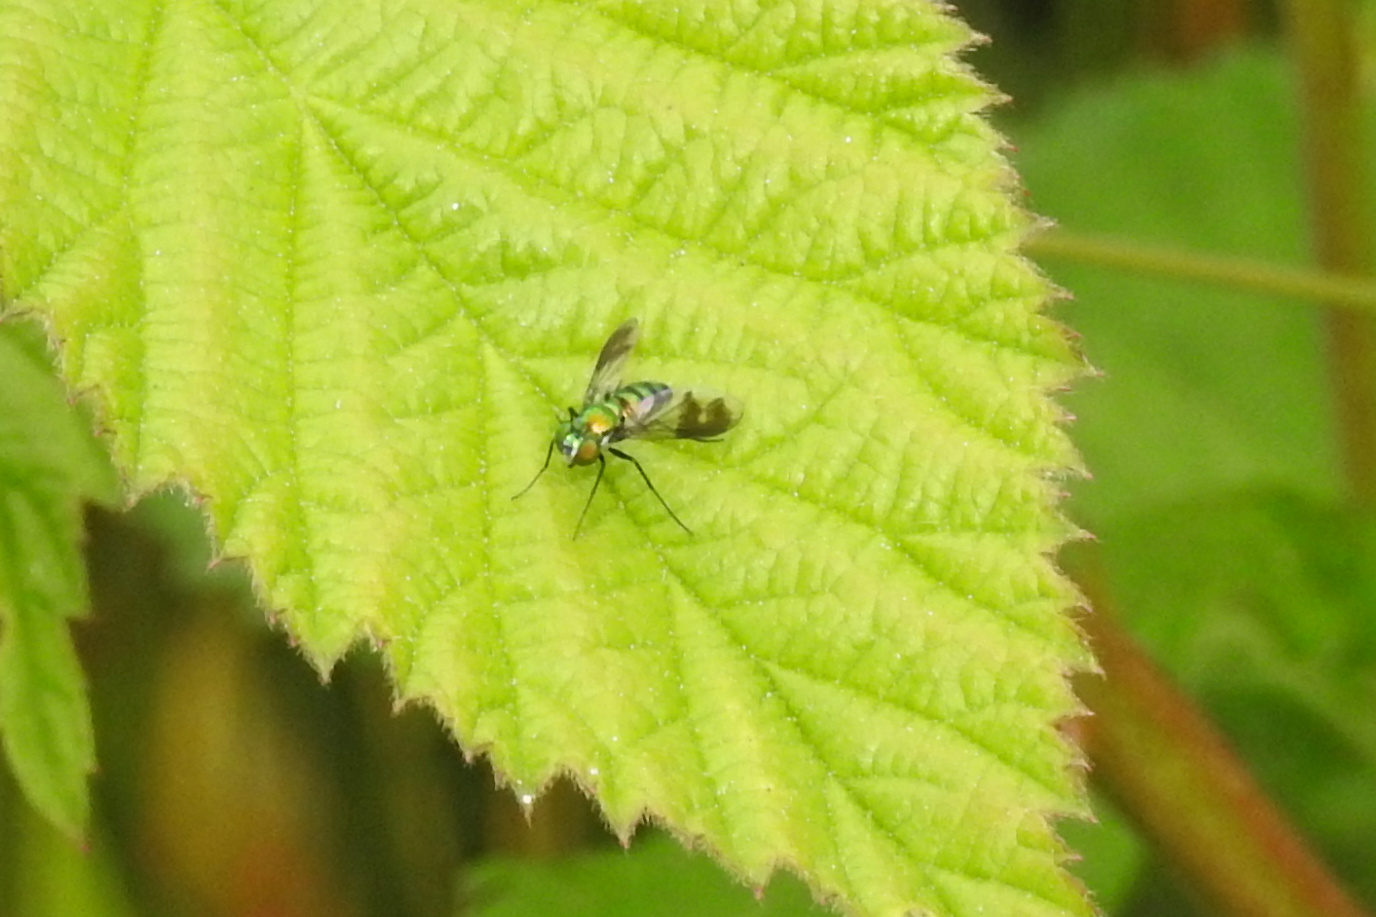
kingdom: Animalia
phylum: Arthropoda
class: Insecta
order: Diptera
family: Dolichopodidae
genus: Condylostylus
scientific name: Condylostylus patibulatus
